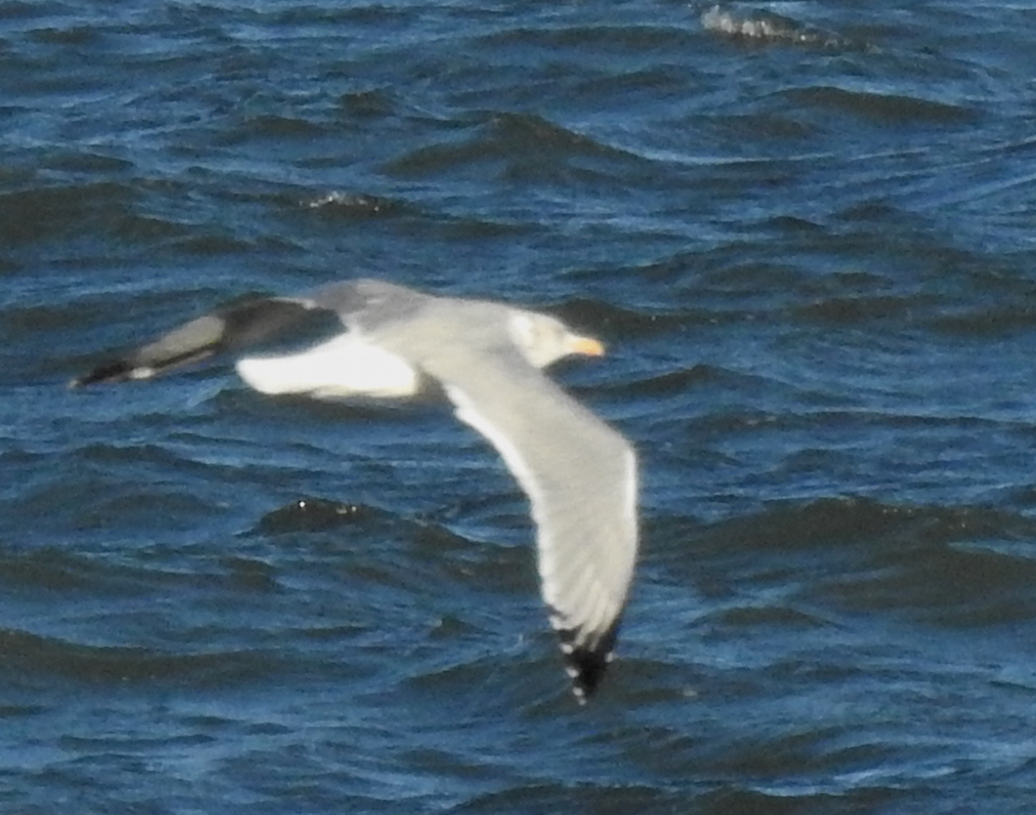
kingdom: Animalia
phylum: Chordata
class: Aves
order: Charadriiformes
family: Laridae
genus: Larus
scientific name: Larus argentatus
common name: Herring gull
